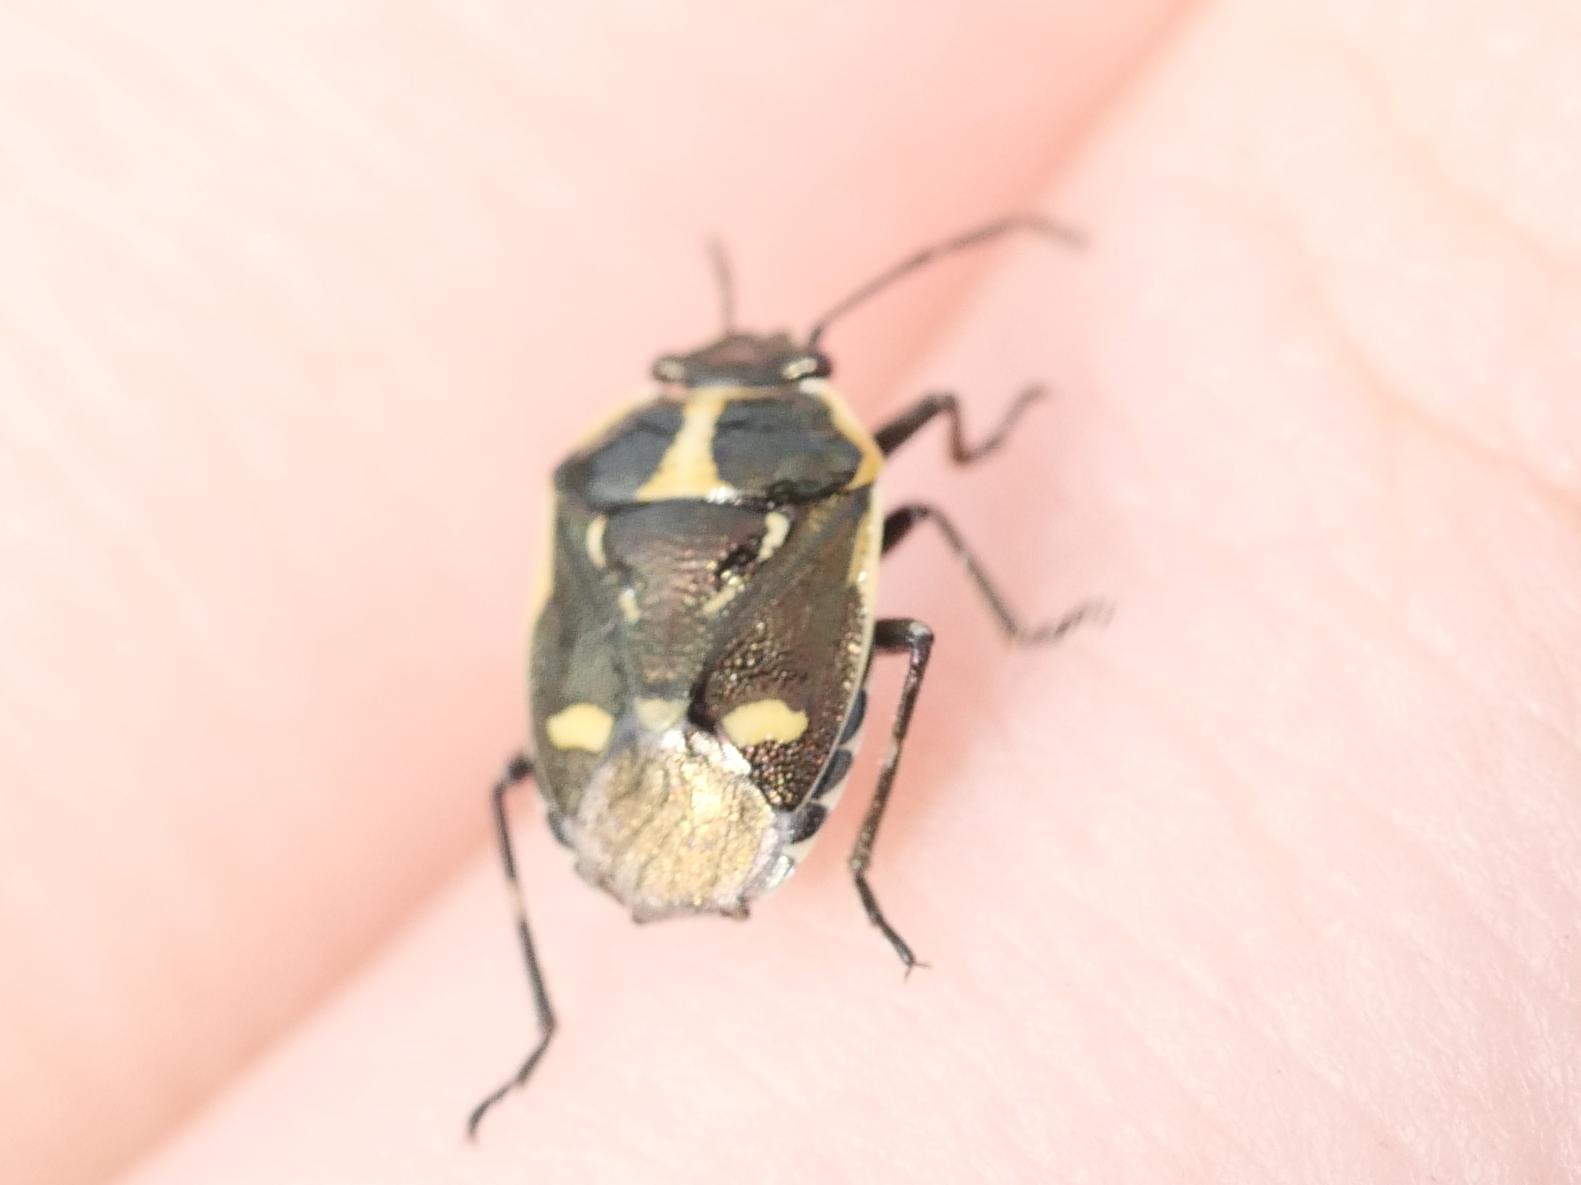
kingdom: Animalia
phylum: Arthropoda
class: Insecta
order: Hemiptera
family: Pentatomidae
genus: Eurydema
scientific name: Eurydema oleracea
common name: Cabbage bug
